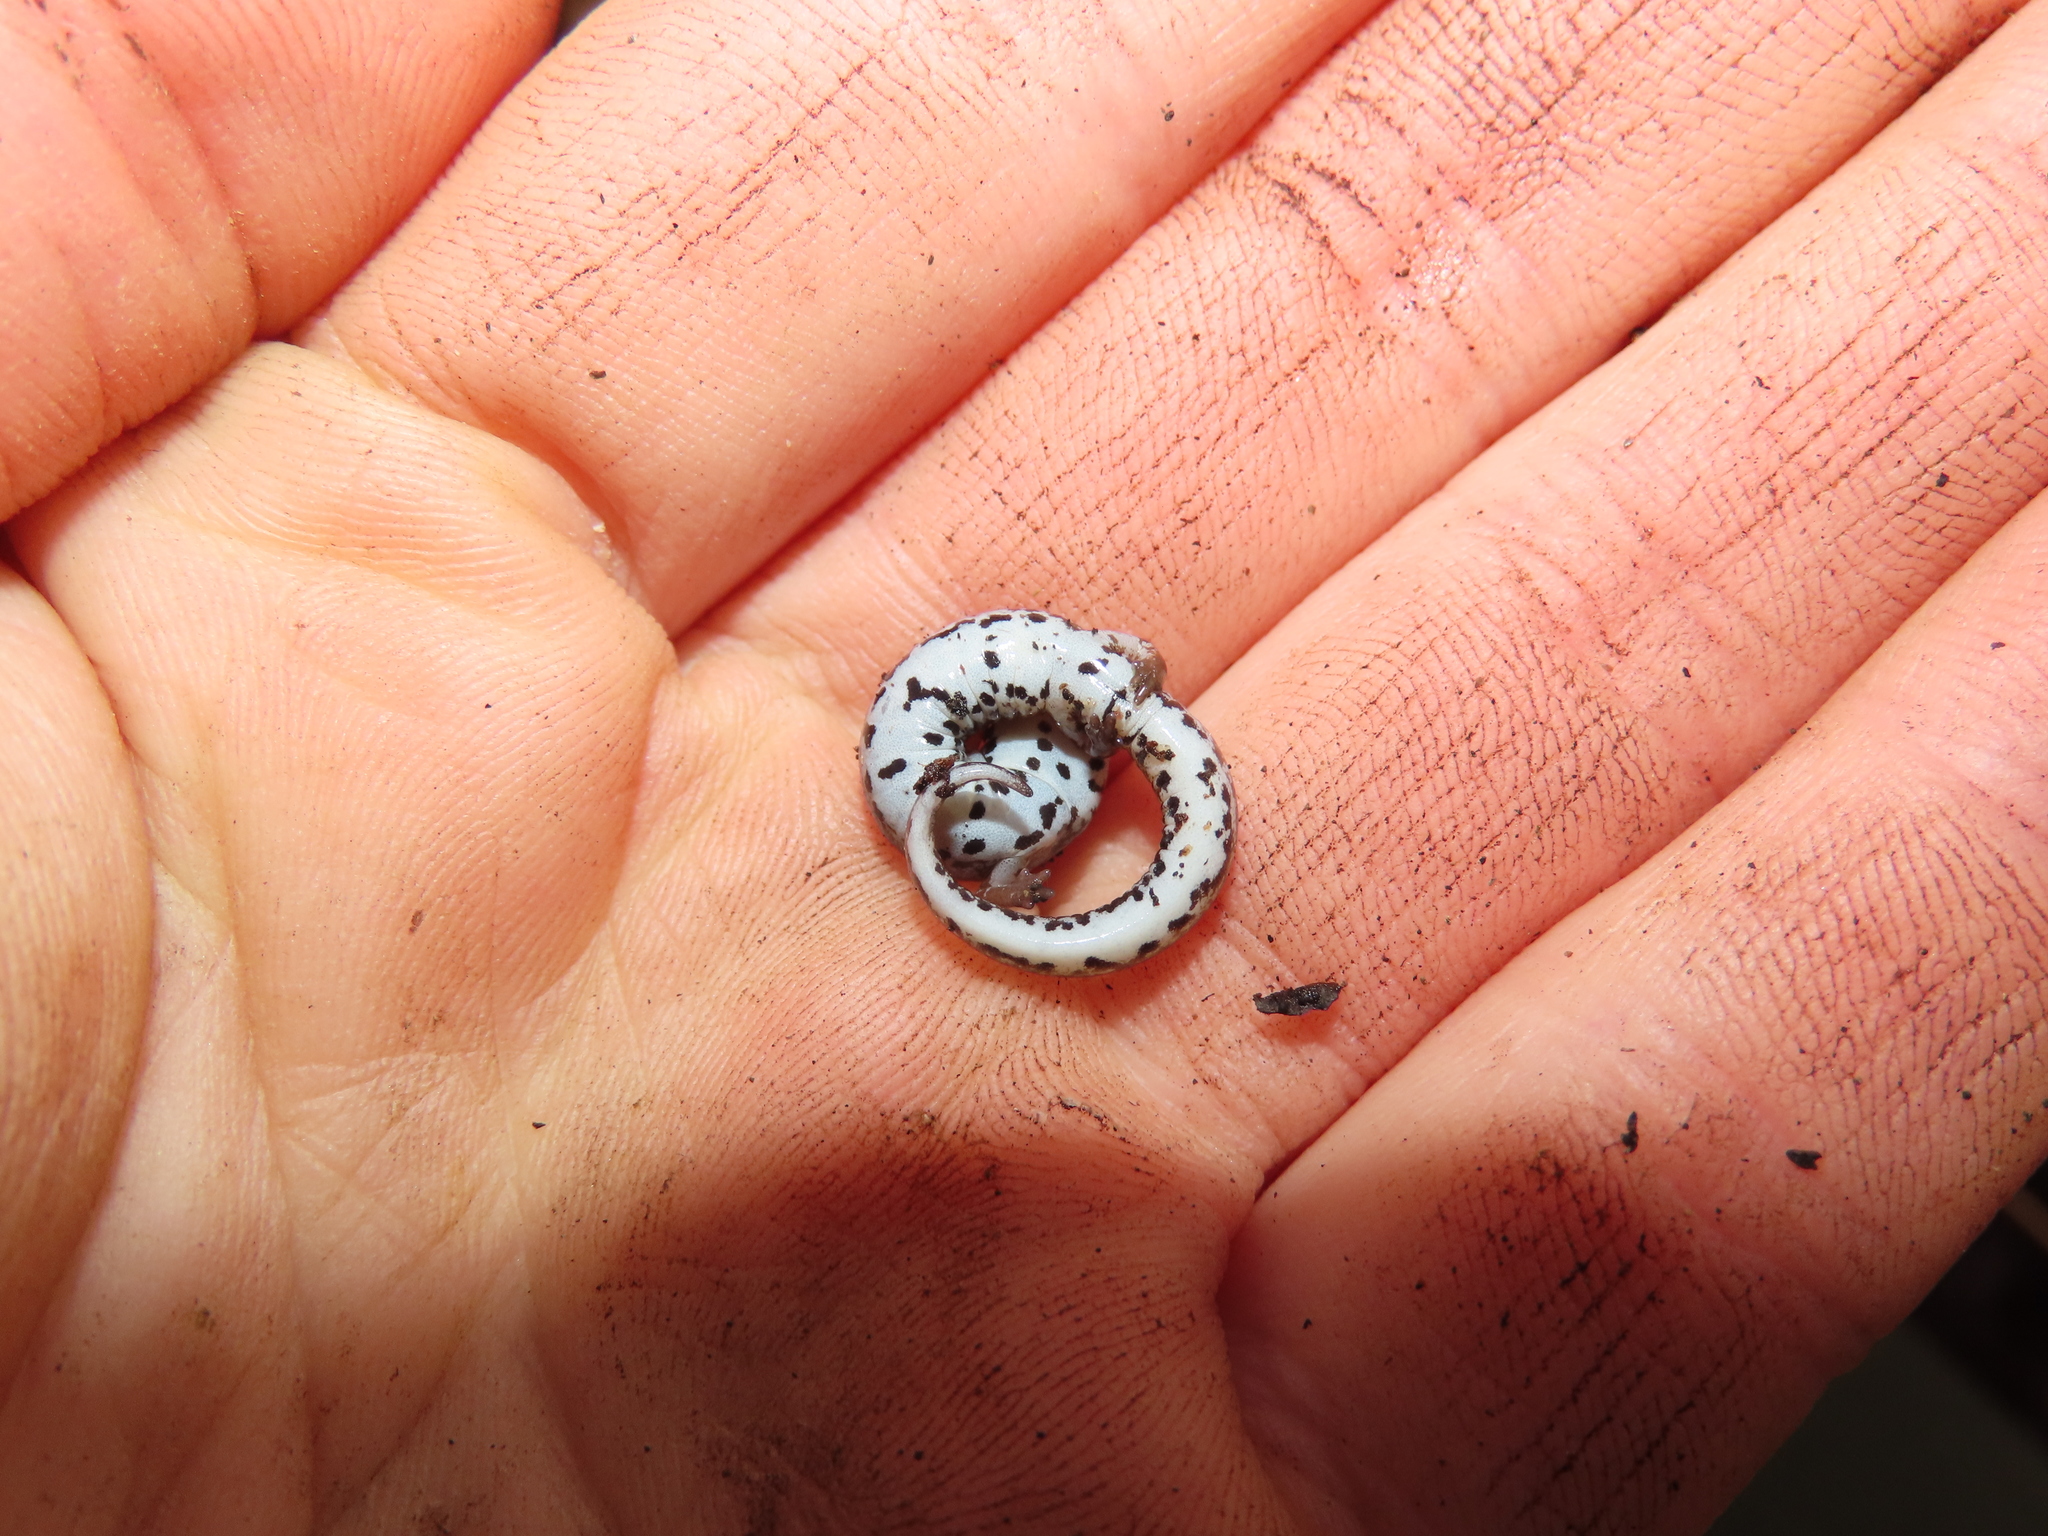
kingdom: Animalia
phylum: Chordata
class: Amphibia
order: Caudata
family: Plethodontidae
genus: Hemidactylium
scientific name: Hemidactylium scutatum
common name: Four-toed salamander
